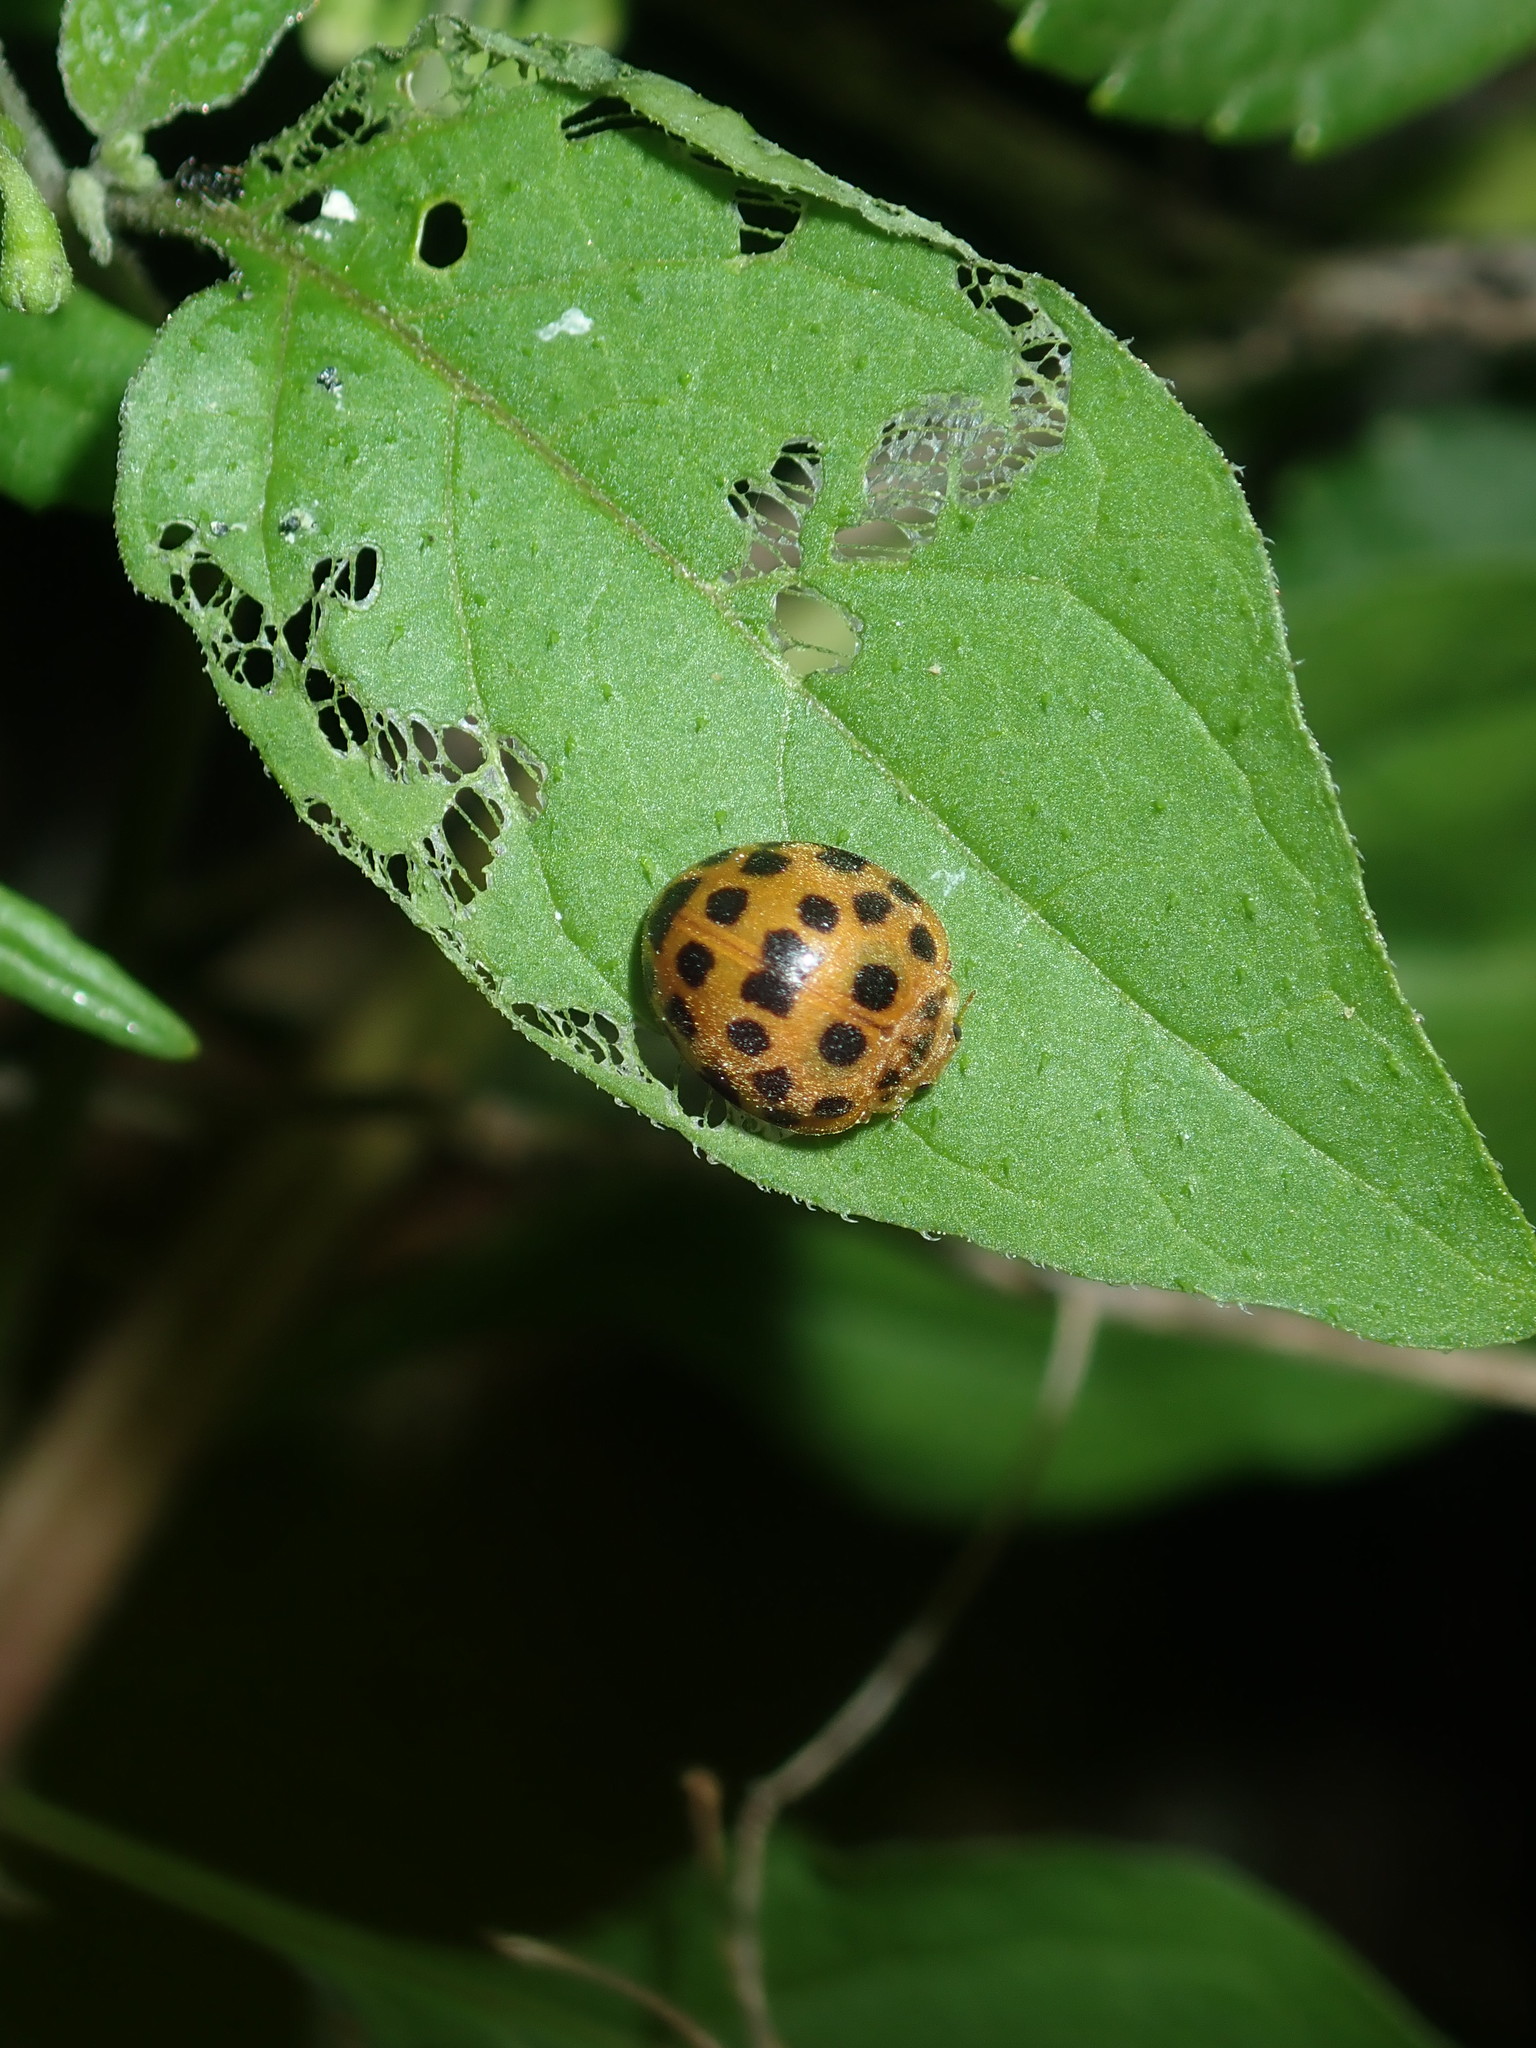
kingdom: Animalia
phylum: Arthropoda
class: Insecta
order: Coleoptera
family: Coccinellidae
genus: Henosepilachna
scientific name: Henosepilachna vigintioctopunctata
